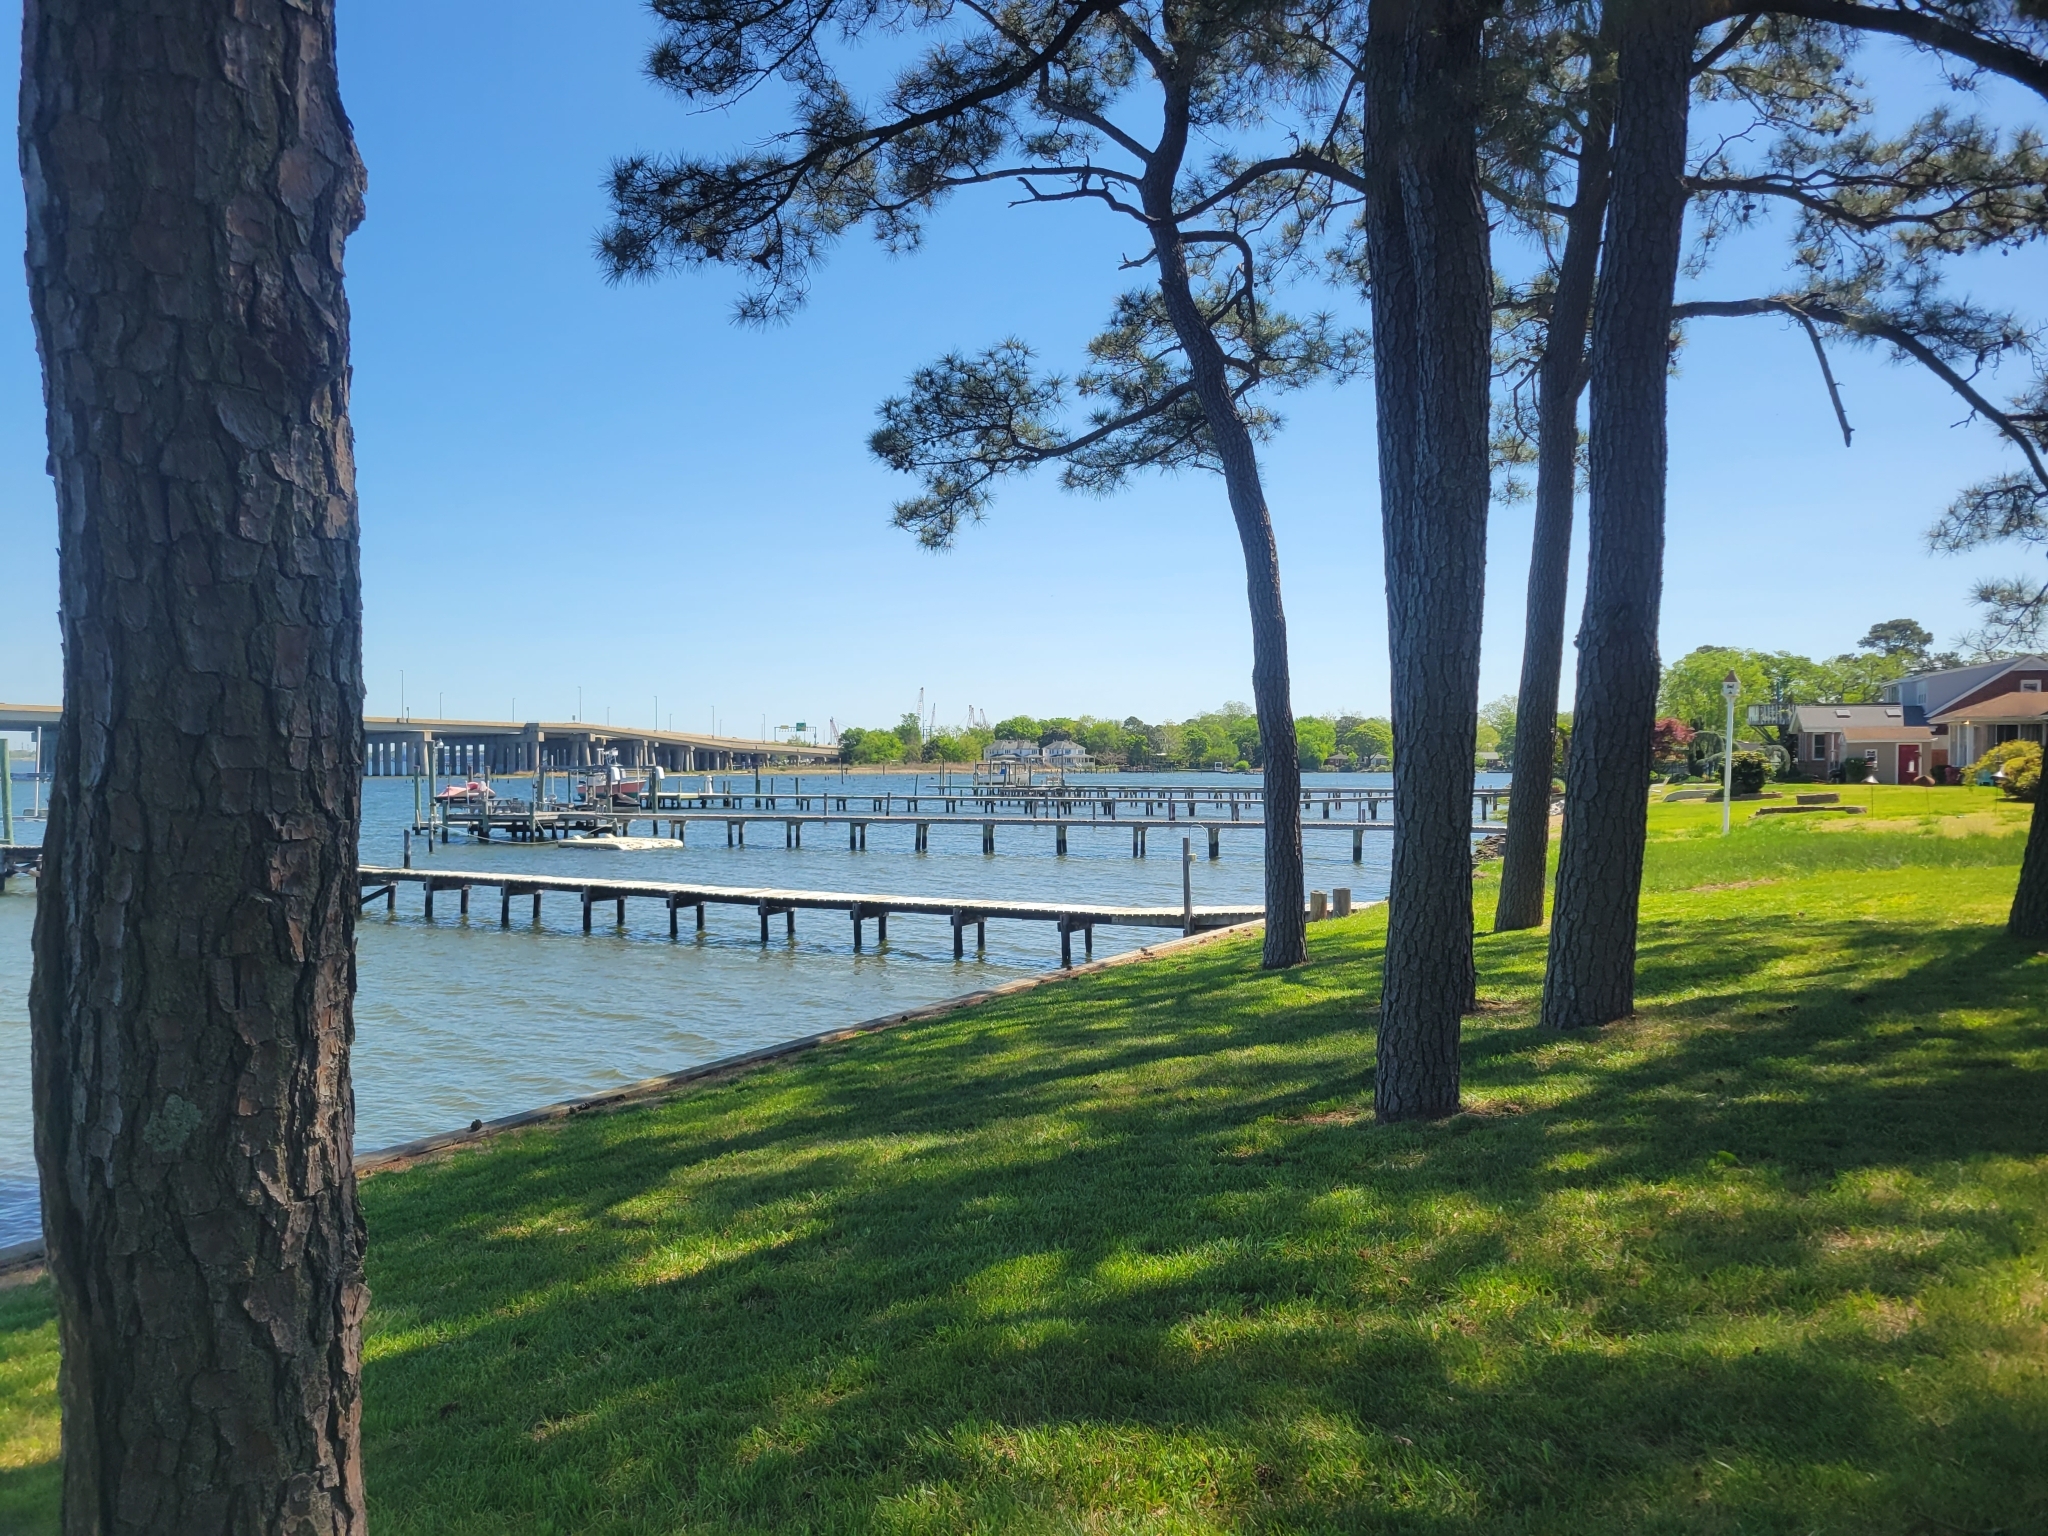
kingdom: Plantae
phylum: Tracheophyta
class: Pinopsida
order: Pinales
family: Pinaceae
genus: Pinus
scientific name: Pinus taeda
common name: Loblolly pine
